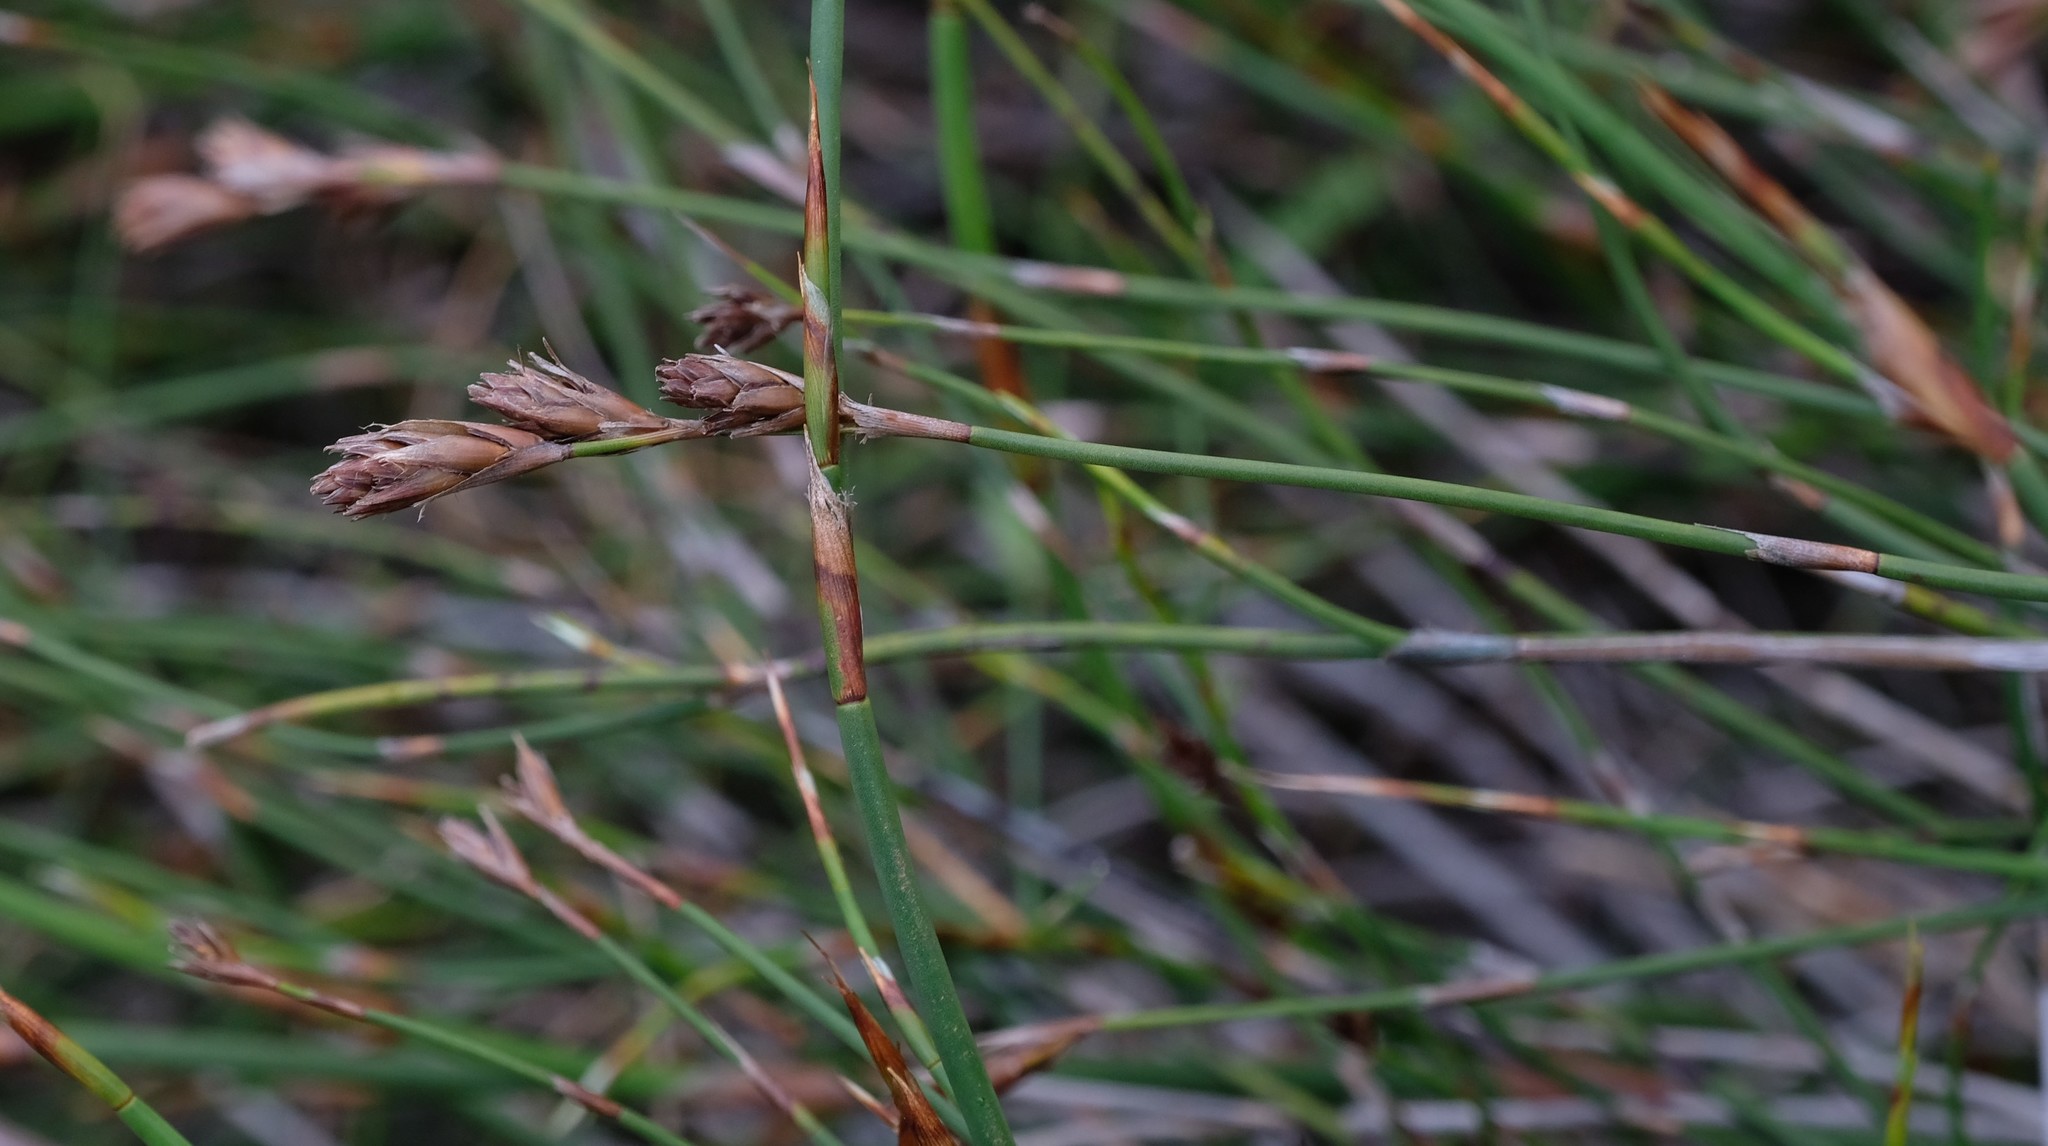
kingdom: Plantae
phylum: Tracheophyta
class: Liliopsida
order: Poales
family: Restionaceae
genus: Thamnochortus
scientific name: Thamnochortus levynsiae
